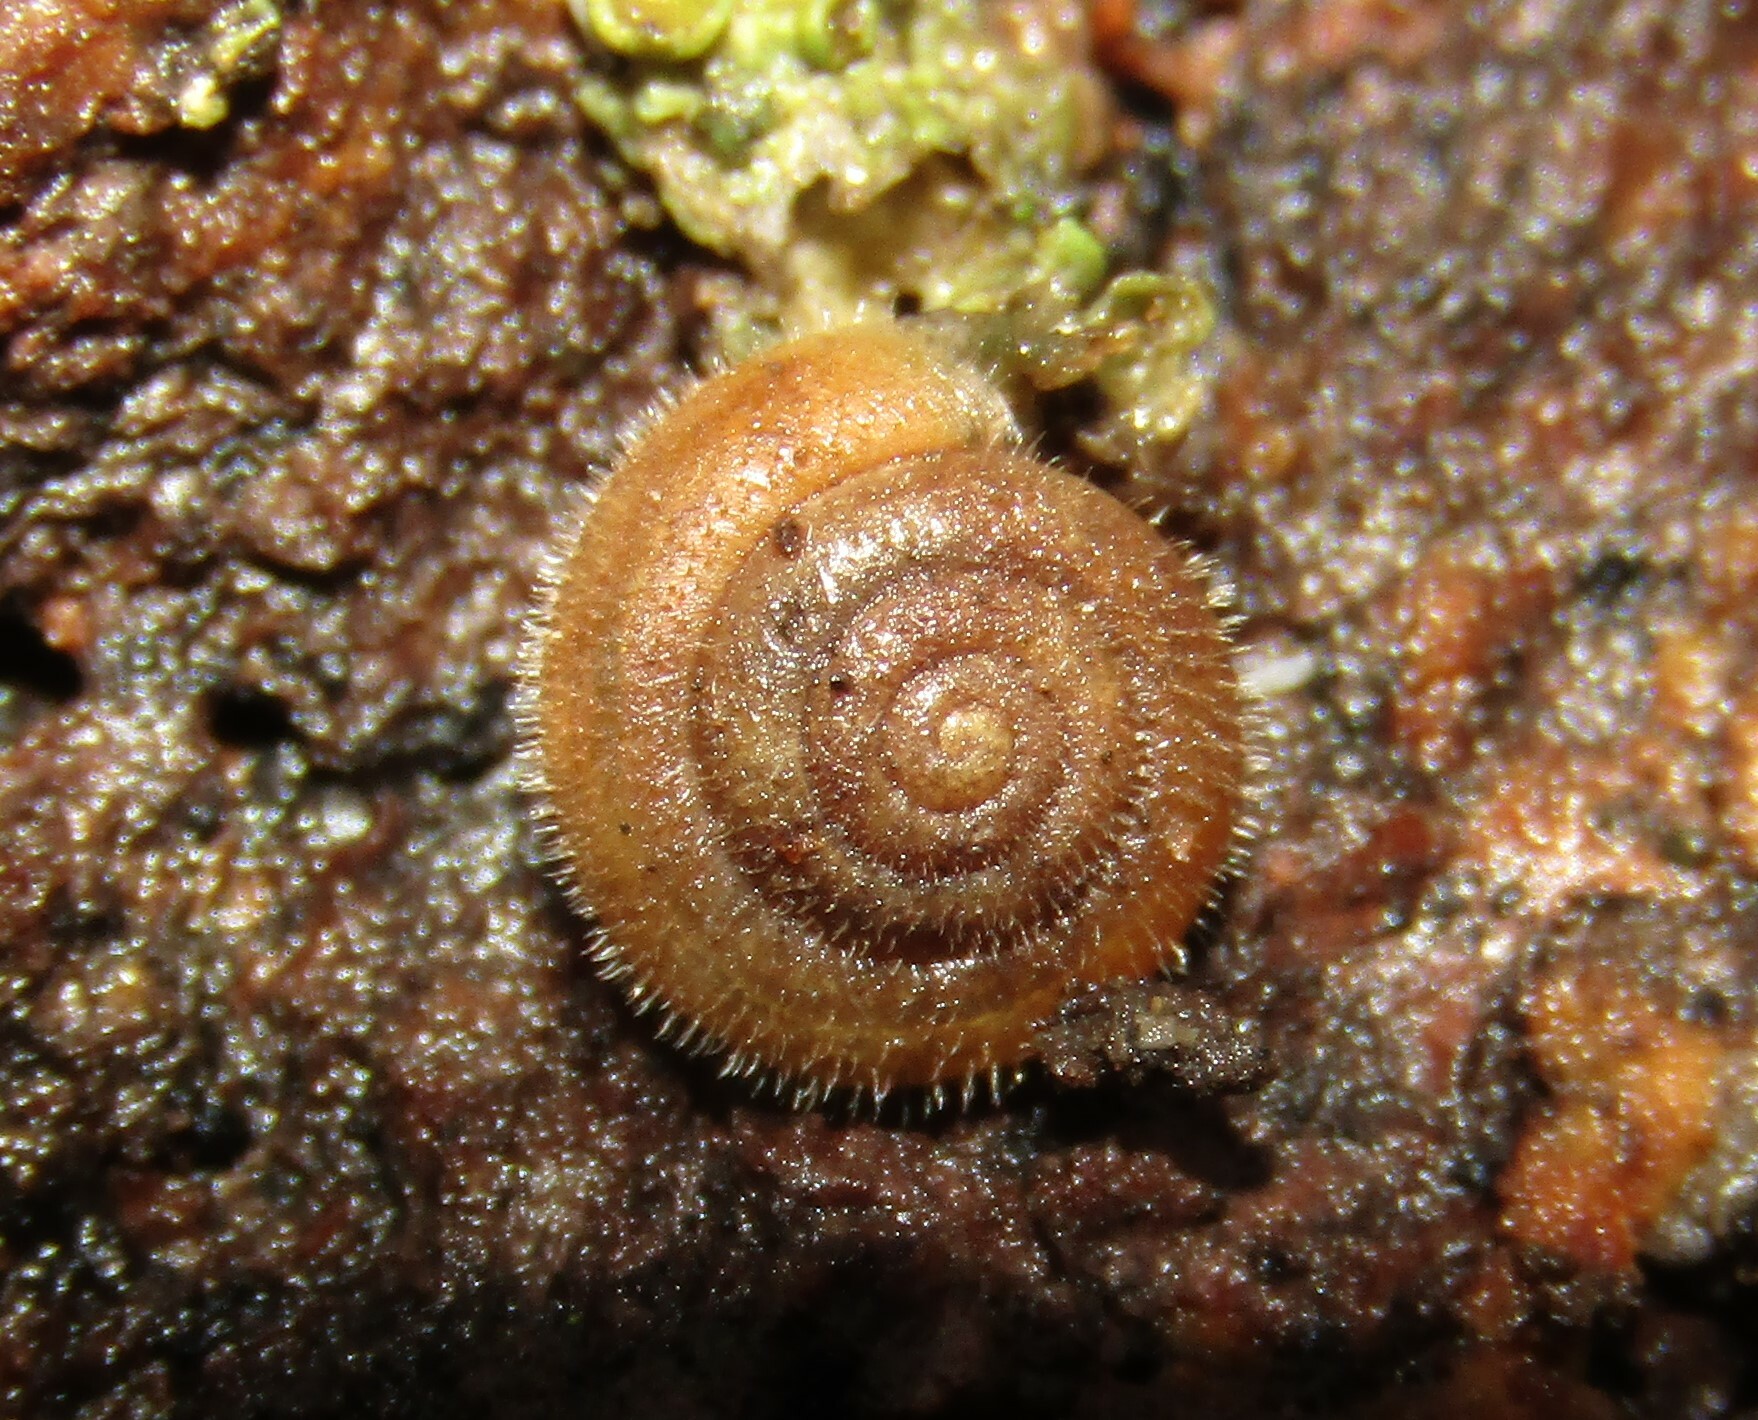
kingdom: Animalia
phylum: Mollusca
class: Gastropoda
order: Stylommatophora
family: Hygromiidae
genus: Trochulus
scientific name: Trochulus hispidus
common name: Hairy snail
